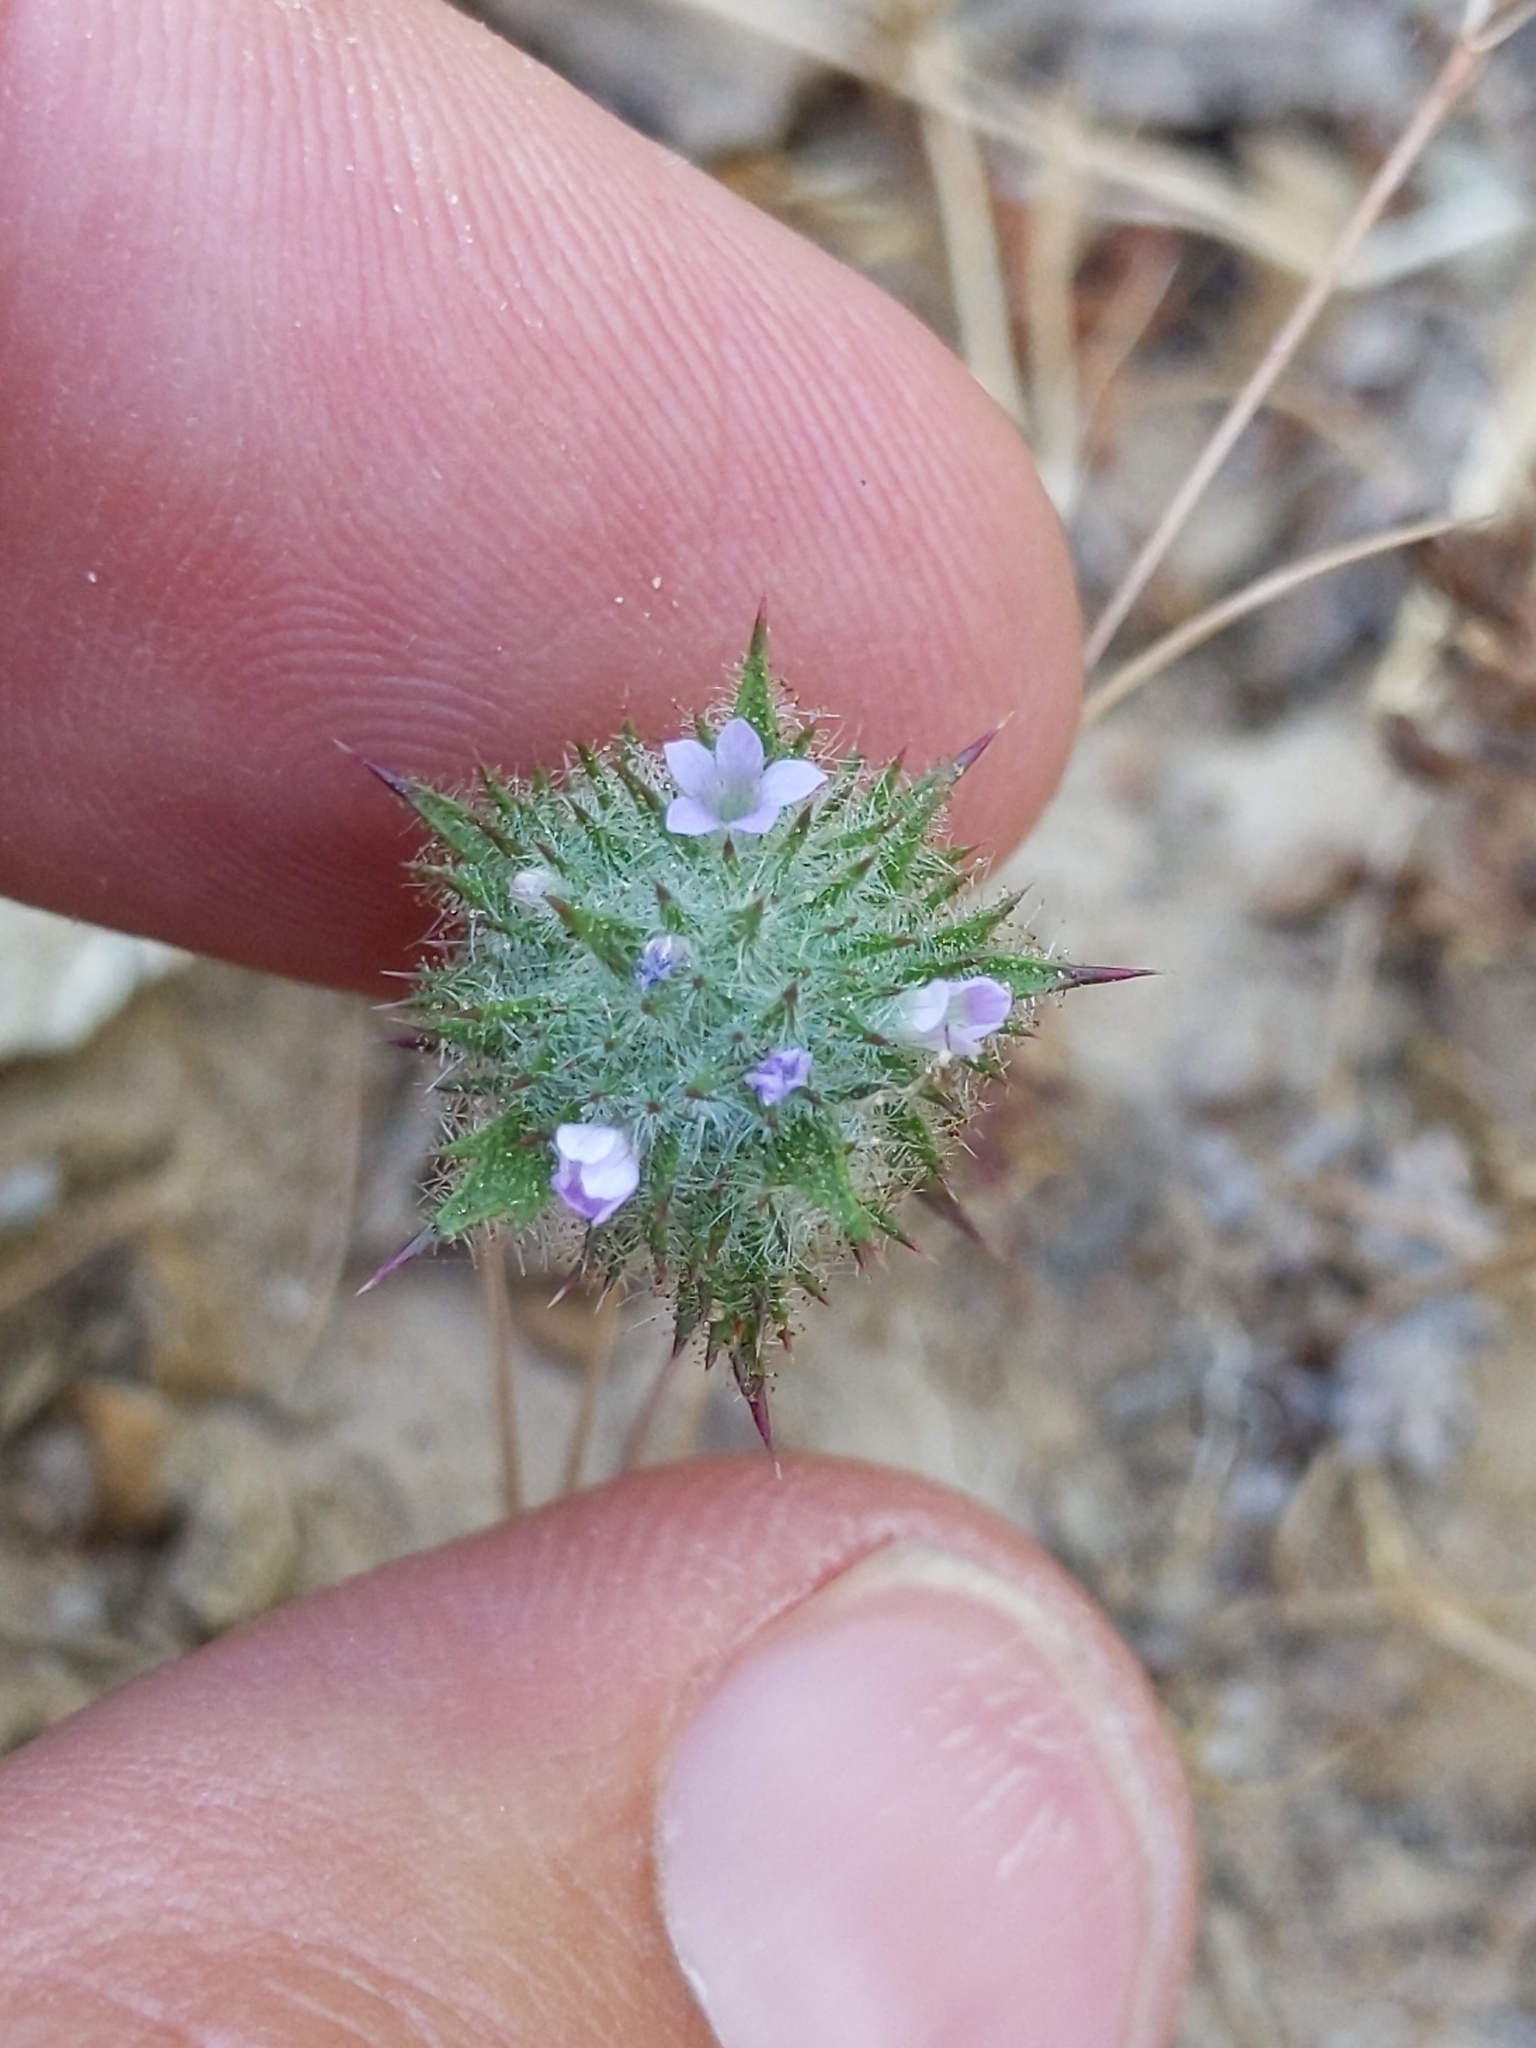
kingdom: Plantae
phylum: Tracheophyta
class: Magnoliopsida
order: Ericales
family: Polemoniaceae
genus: Navarretia
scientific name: Navarretia mellita
